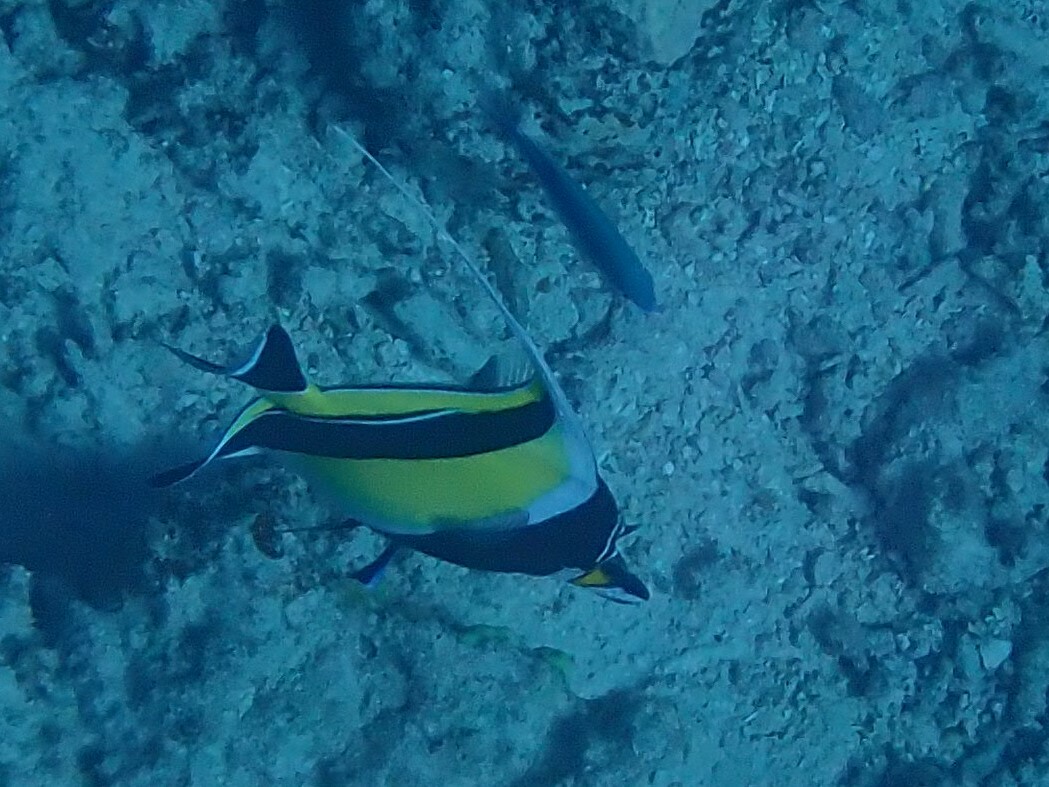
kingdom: Animalia
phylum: Chordata
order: Perciformes
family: Zanclidae
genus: Zanclus
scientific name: Zanclus cornutus
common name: Moorish idol
